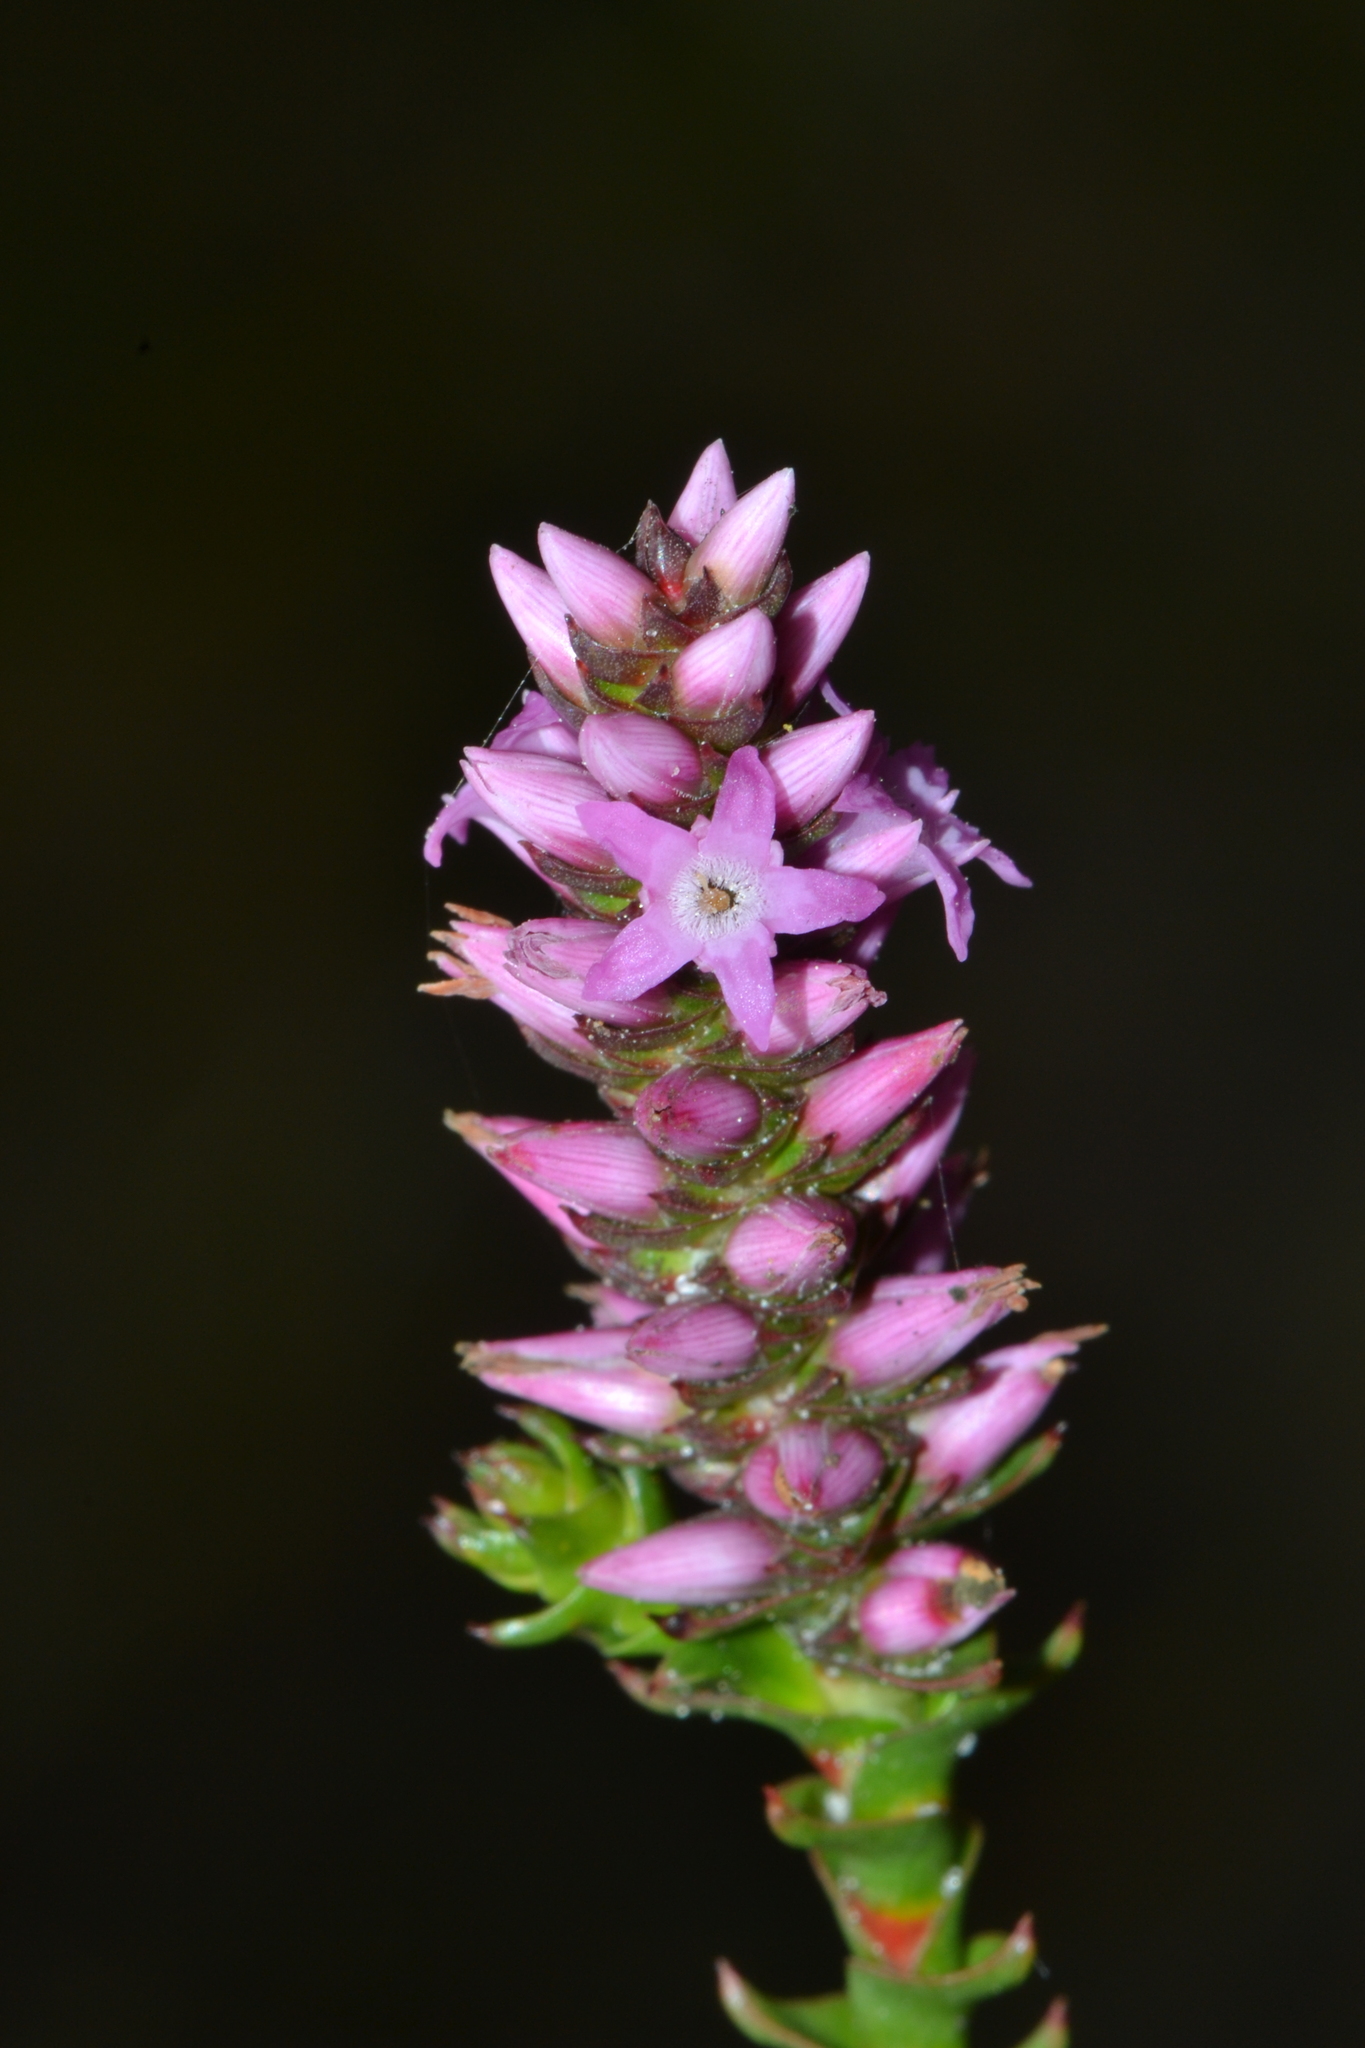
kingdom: Plantae
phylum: Tracheophyta
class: Magnoliopsida
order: Ericales
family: Ericaceae
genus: Andersonia
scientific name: Andersonia simplex
